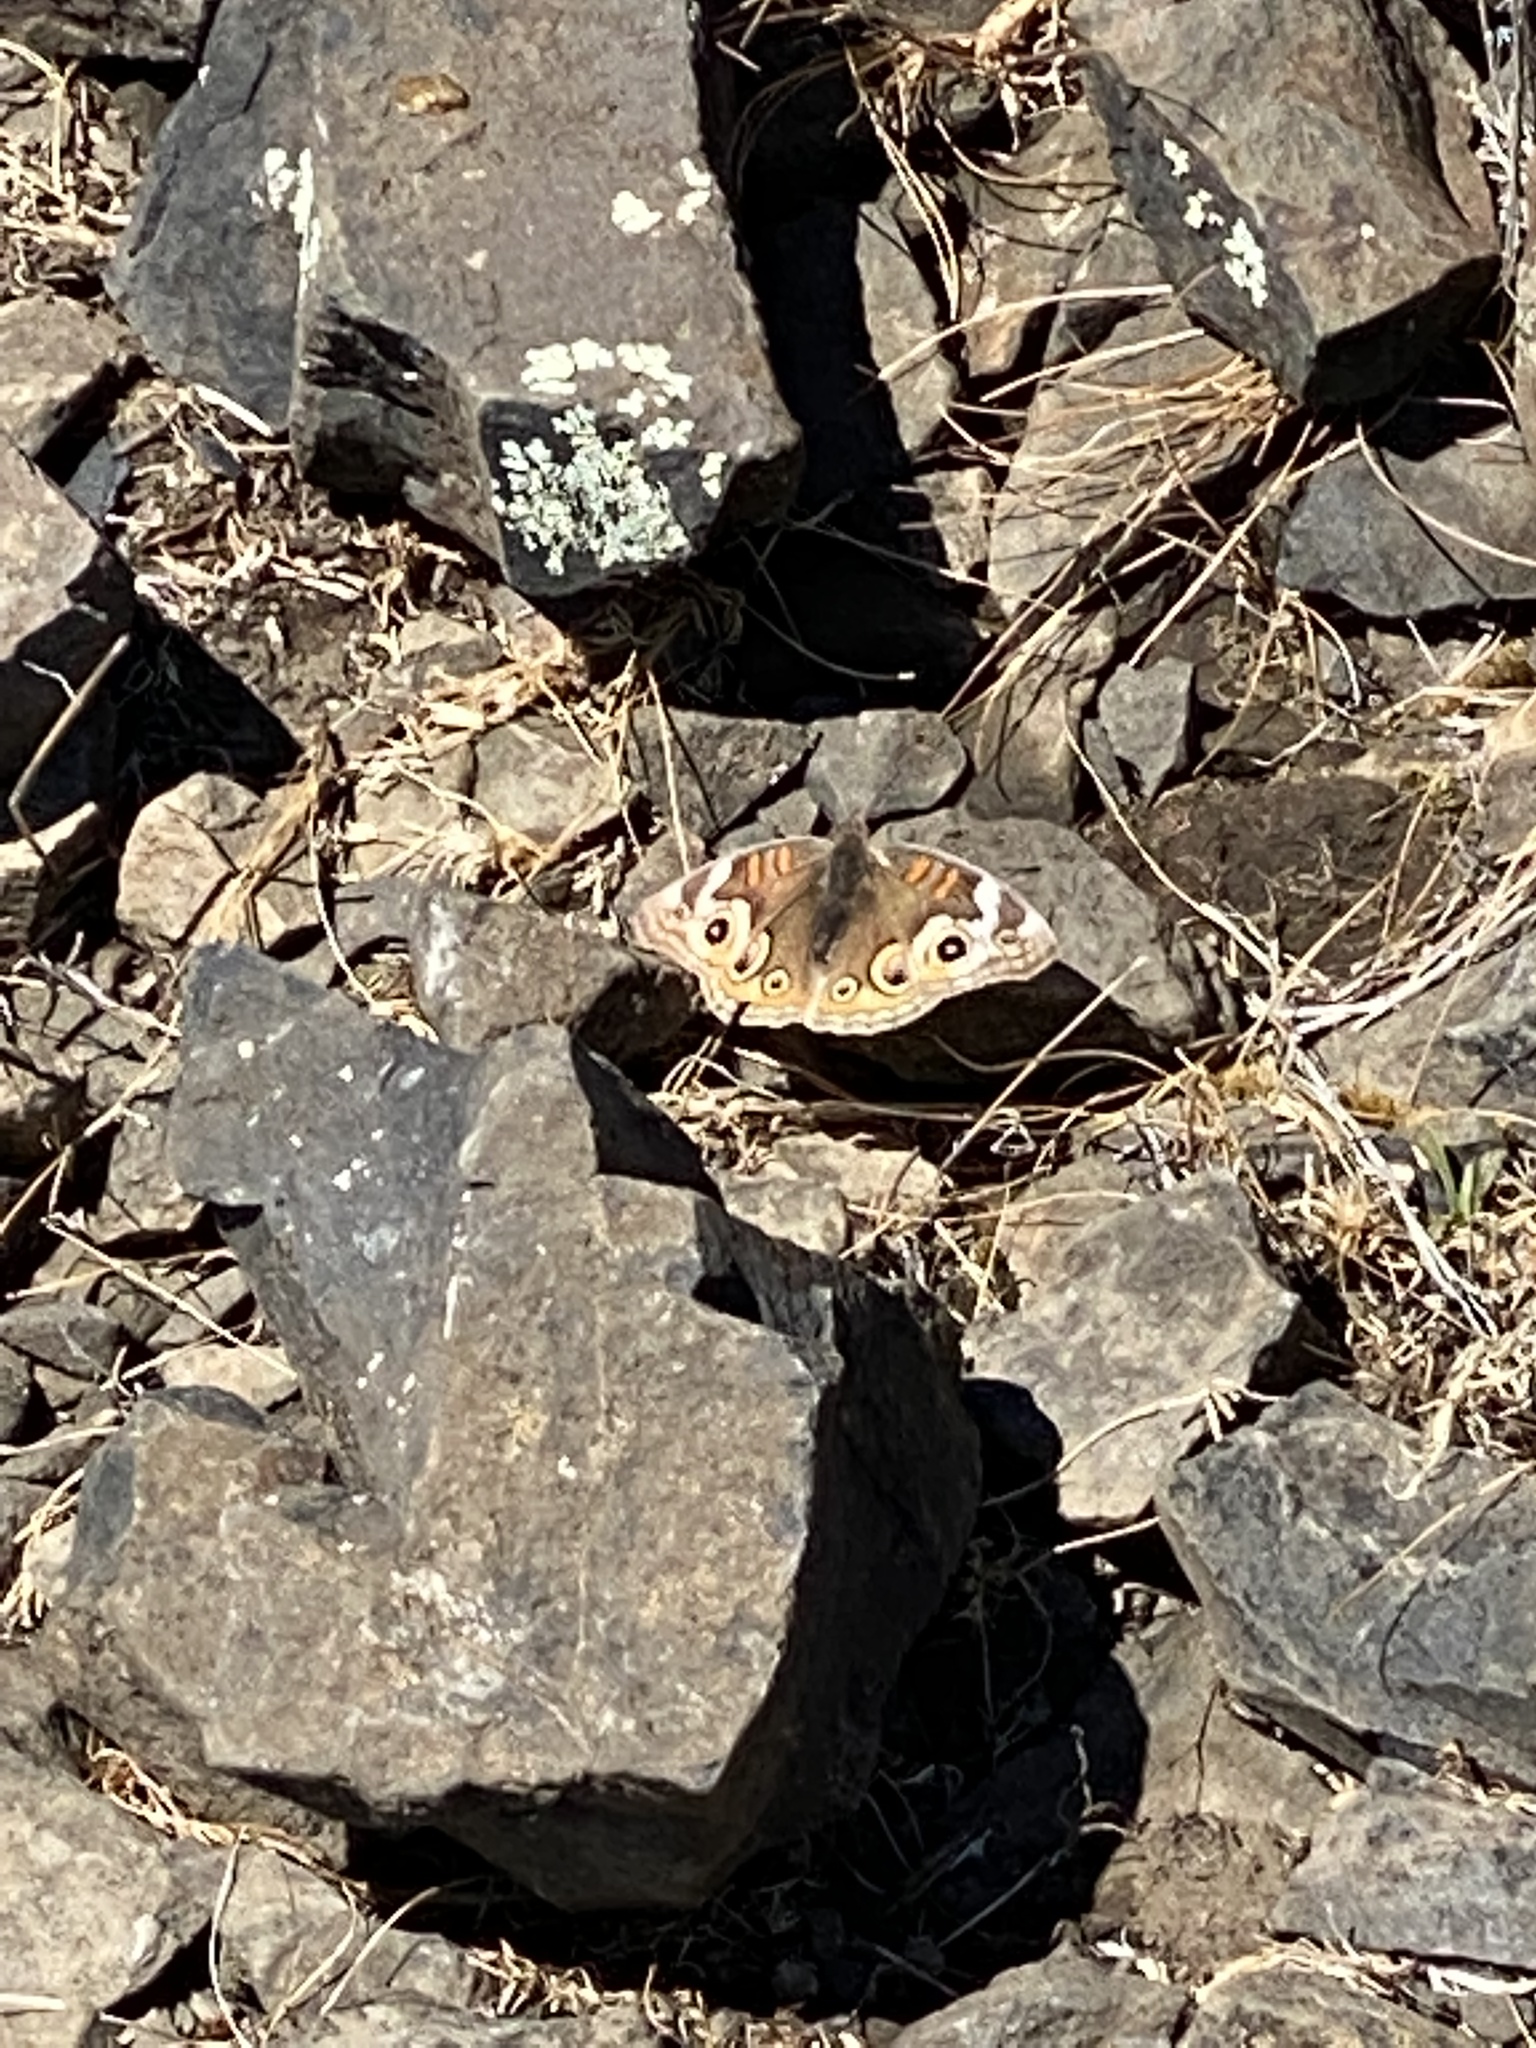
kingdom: Animalia
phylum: Arthropoda
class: Insecta
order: Lepidoptera
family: Nymphalidae
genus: Junonia
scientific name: Junonia grisea
